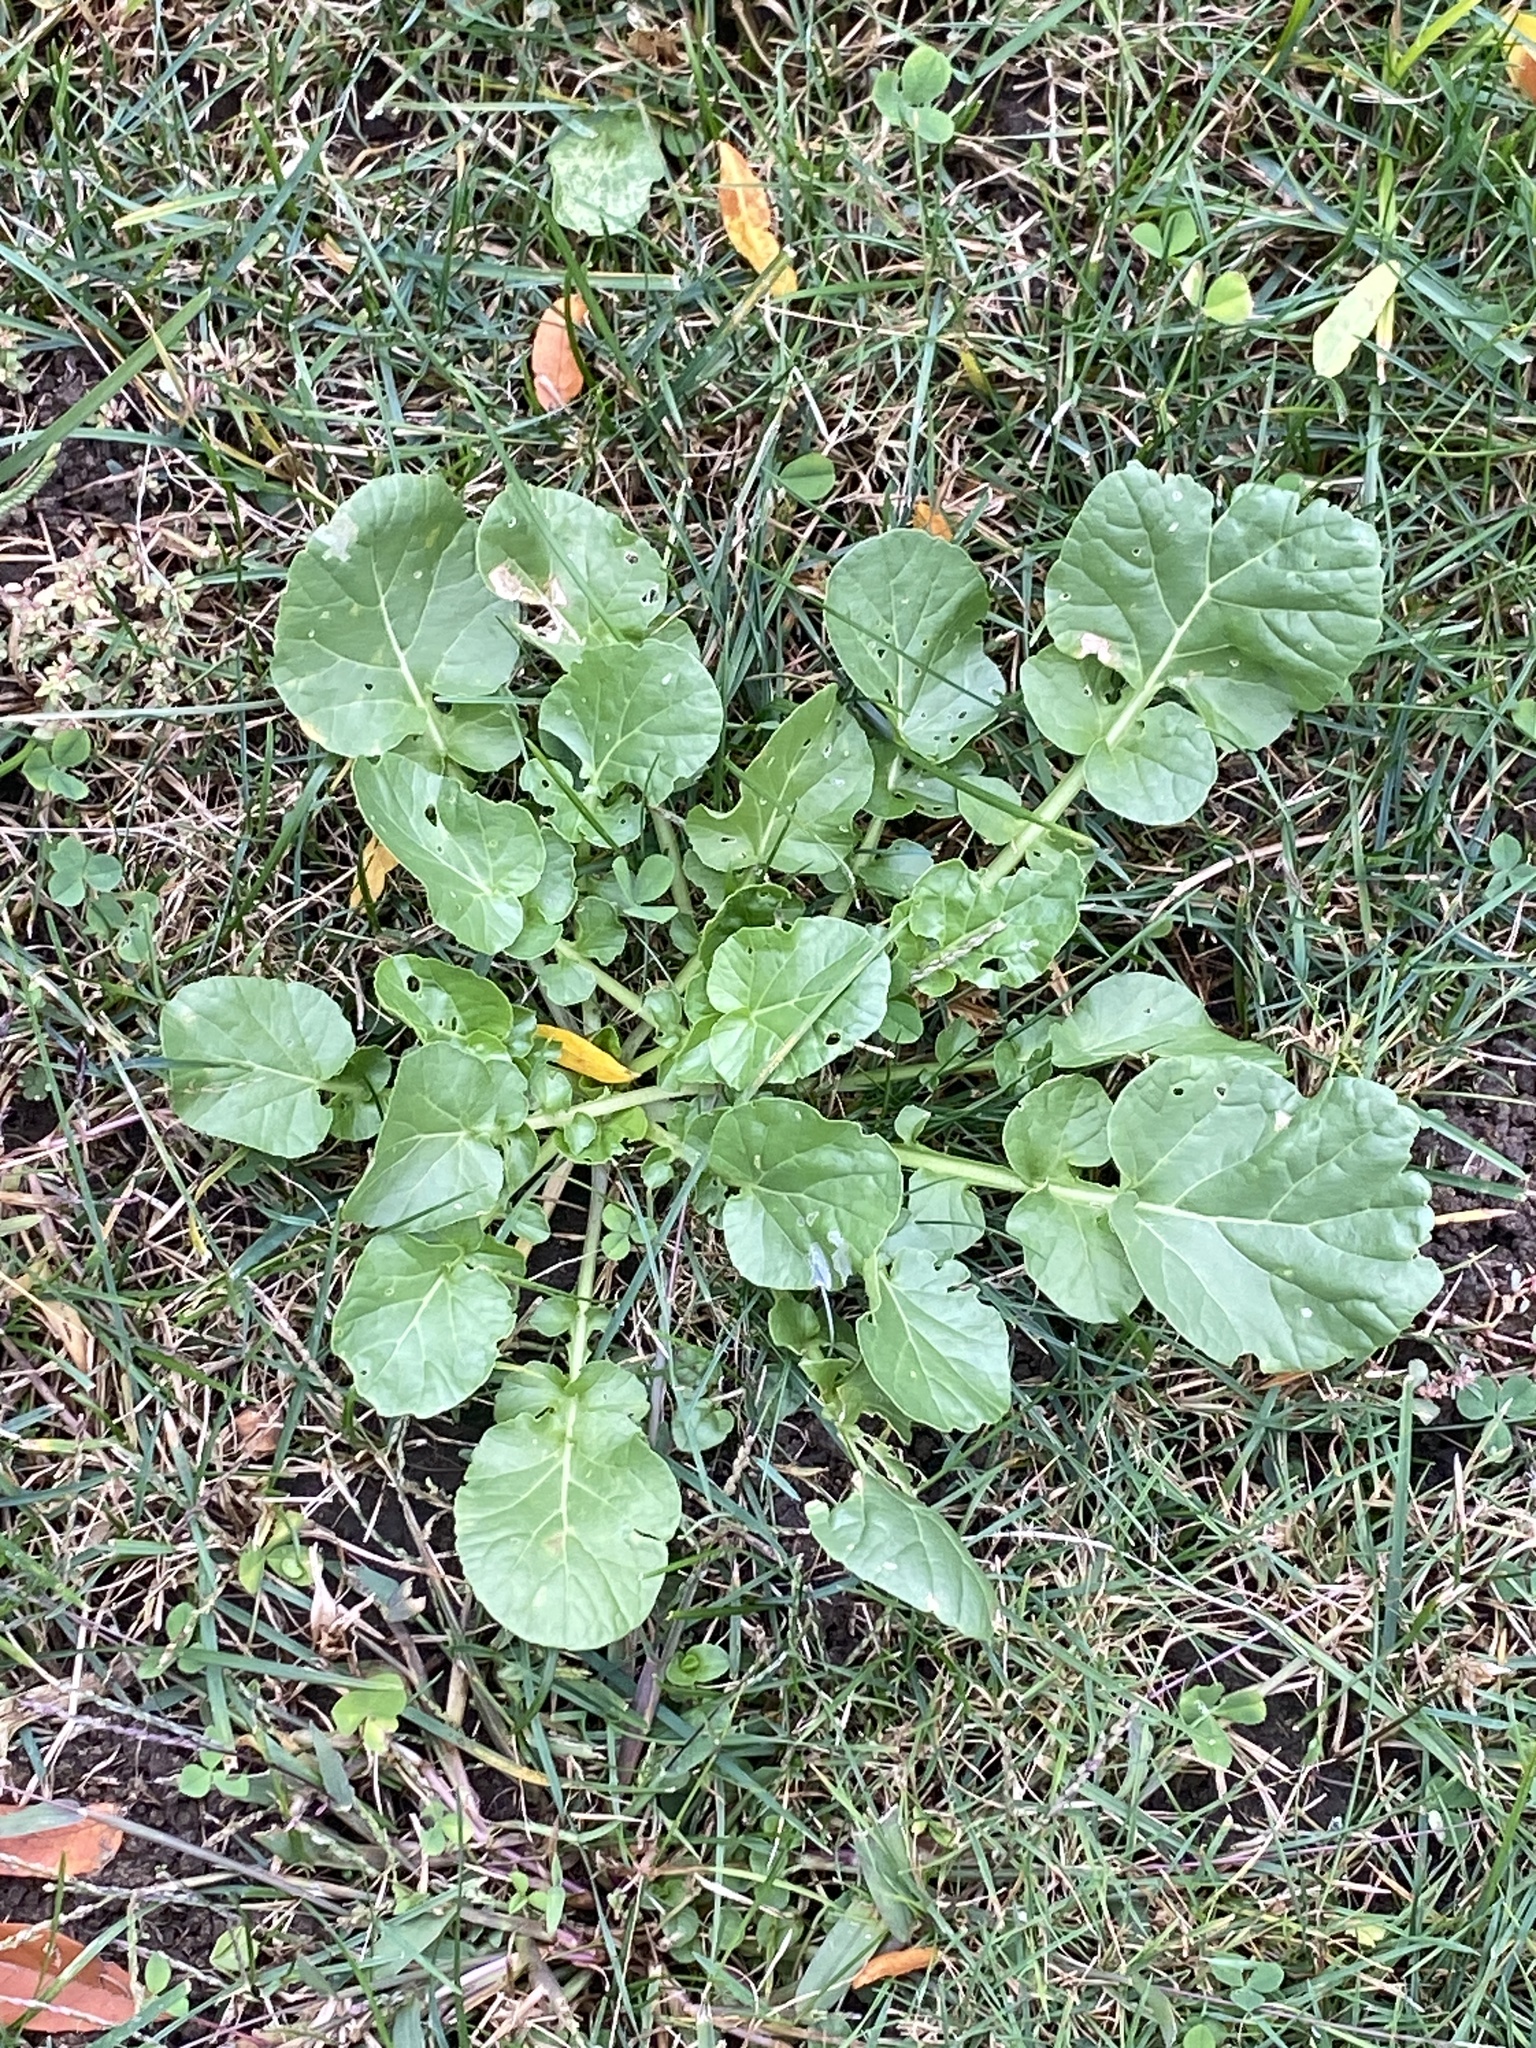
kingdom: Plantae
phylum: Tracheophyta
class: Magnoliopsida
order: Brassicales
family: Brassicaceae
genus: Barbarea
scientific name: Barbarea vulgaris
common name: Cressy-greens
